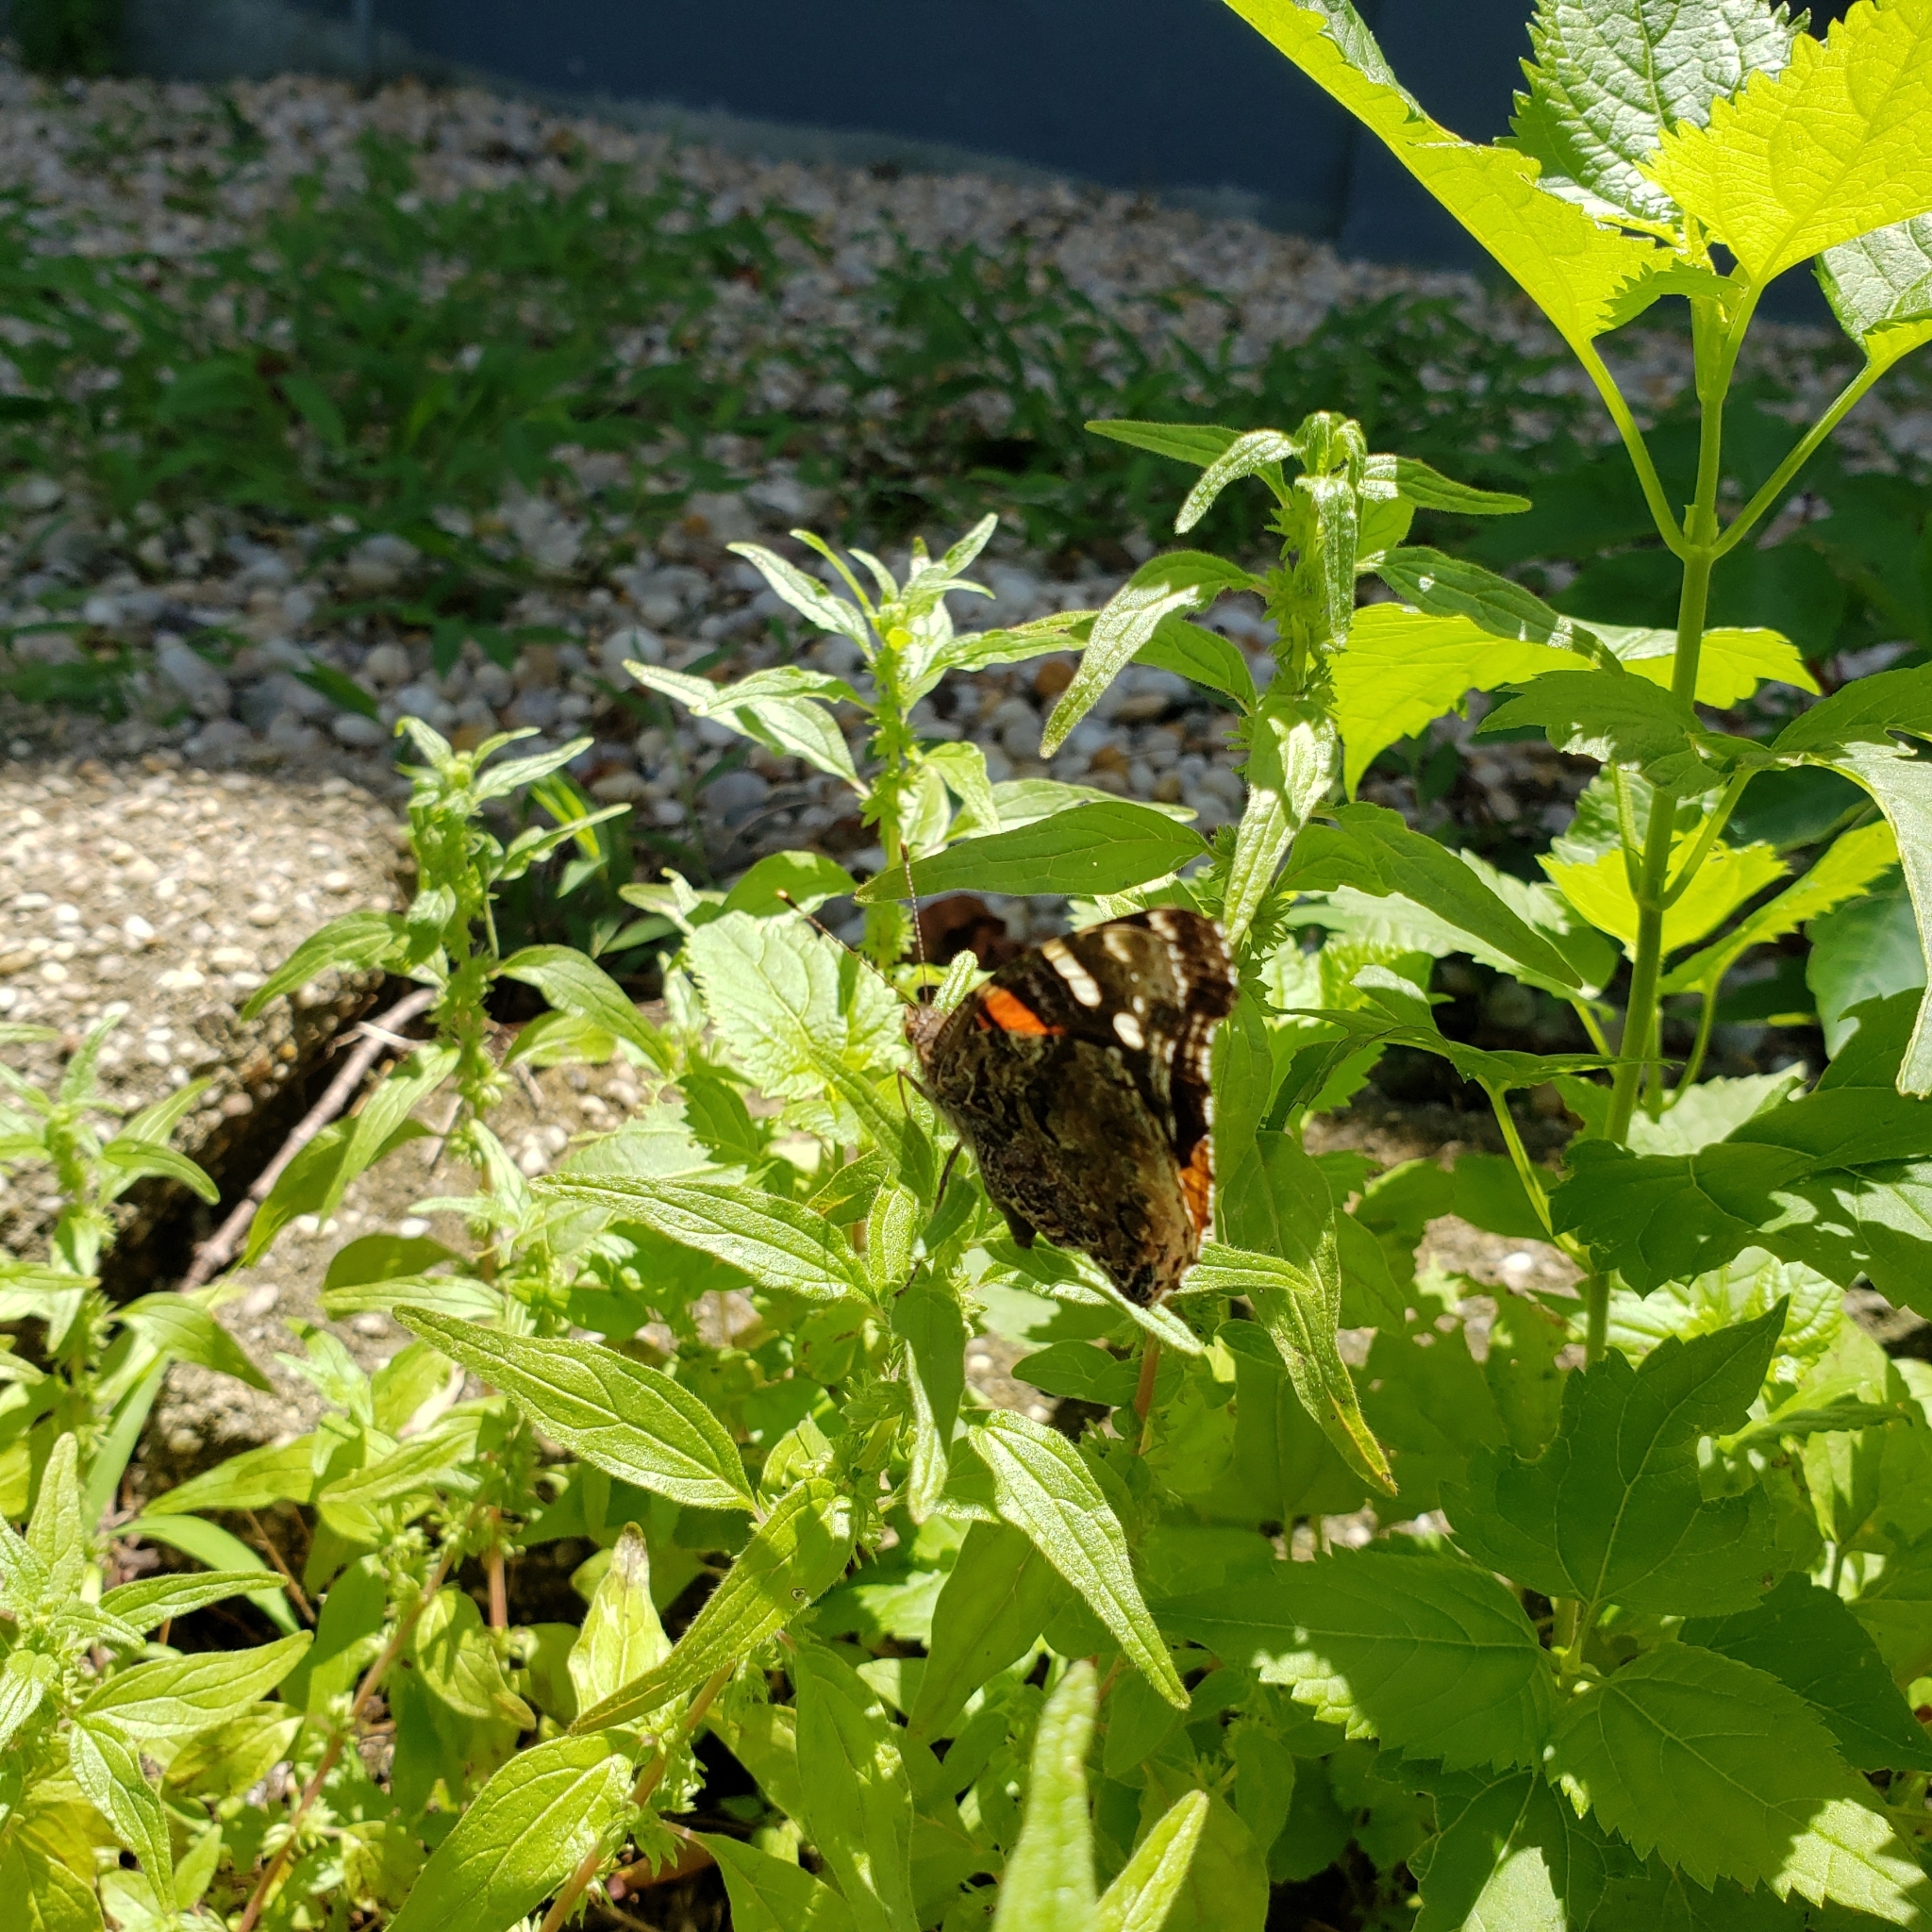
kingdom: Animalia
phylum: Arthropoda
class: Insecta
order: Lepidoptera
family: Nymphalidae
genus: Vanessa
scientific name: Vanessa atalanta
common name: Red admiral
